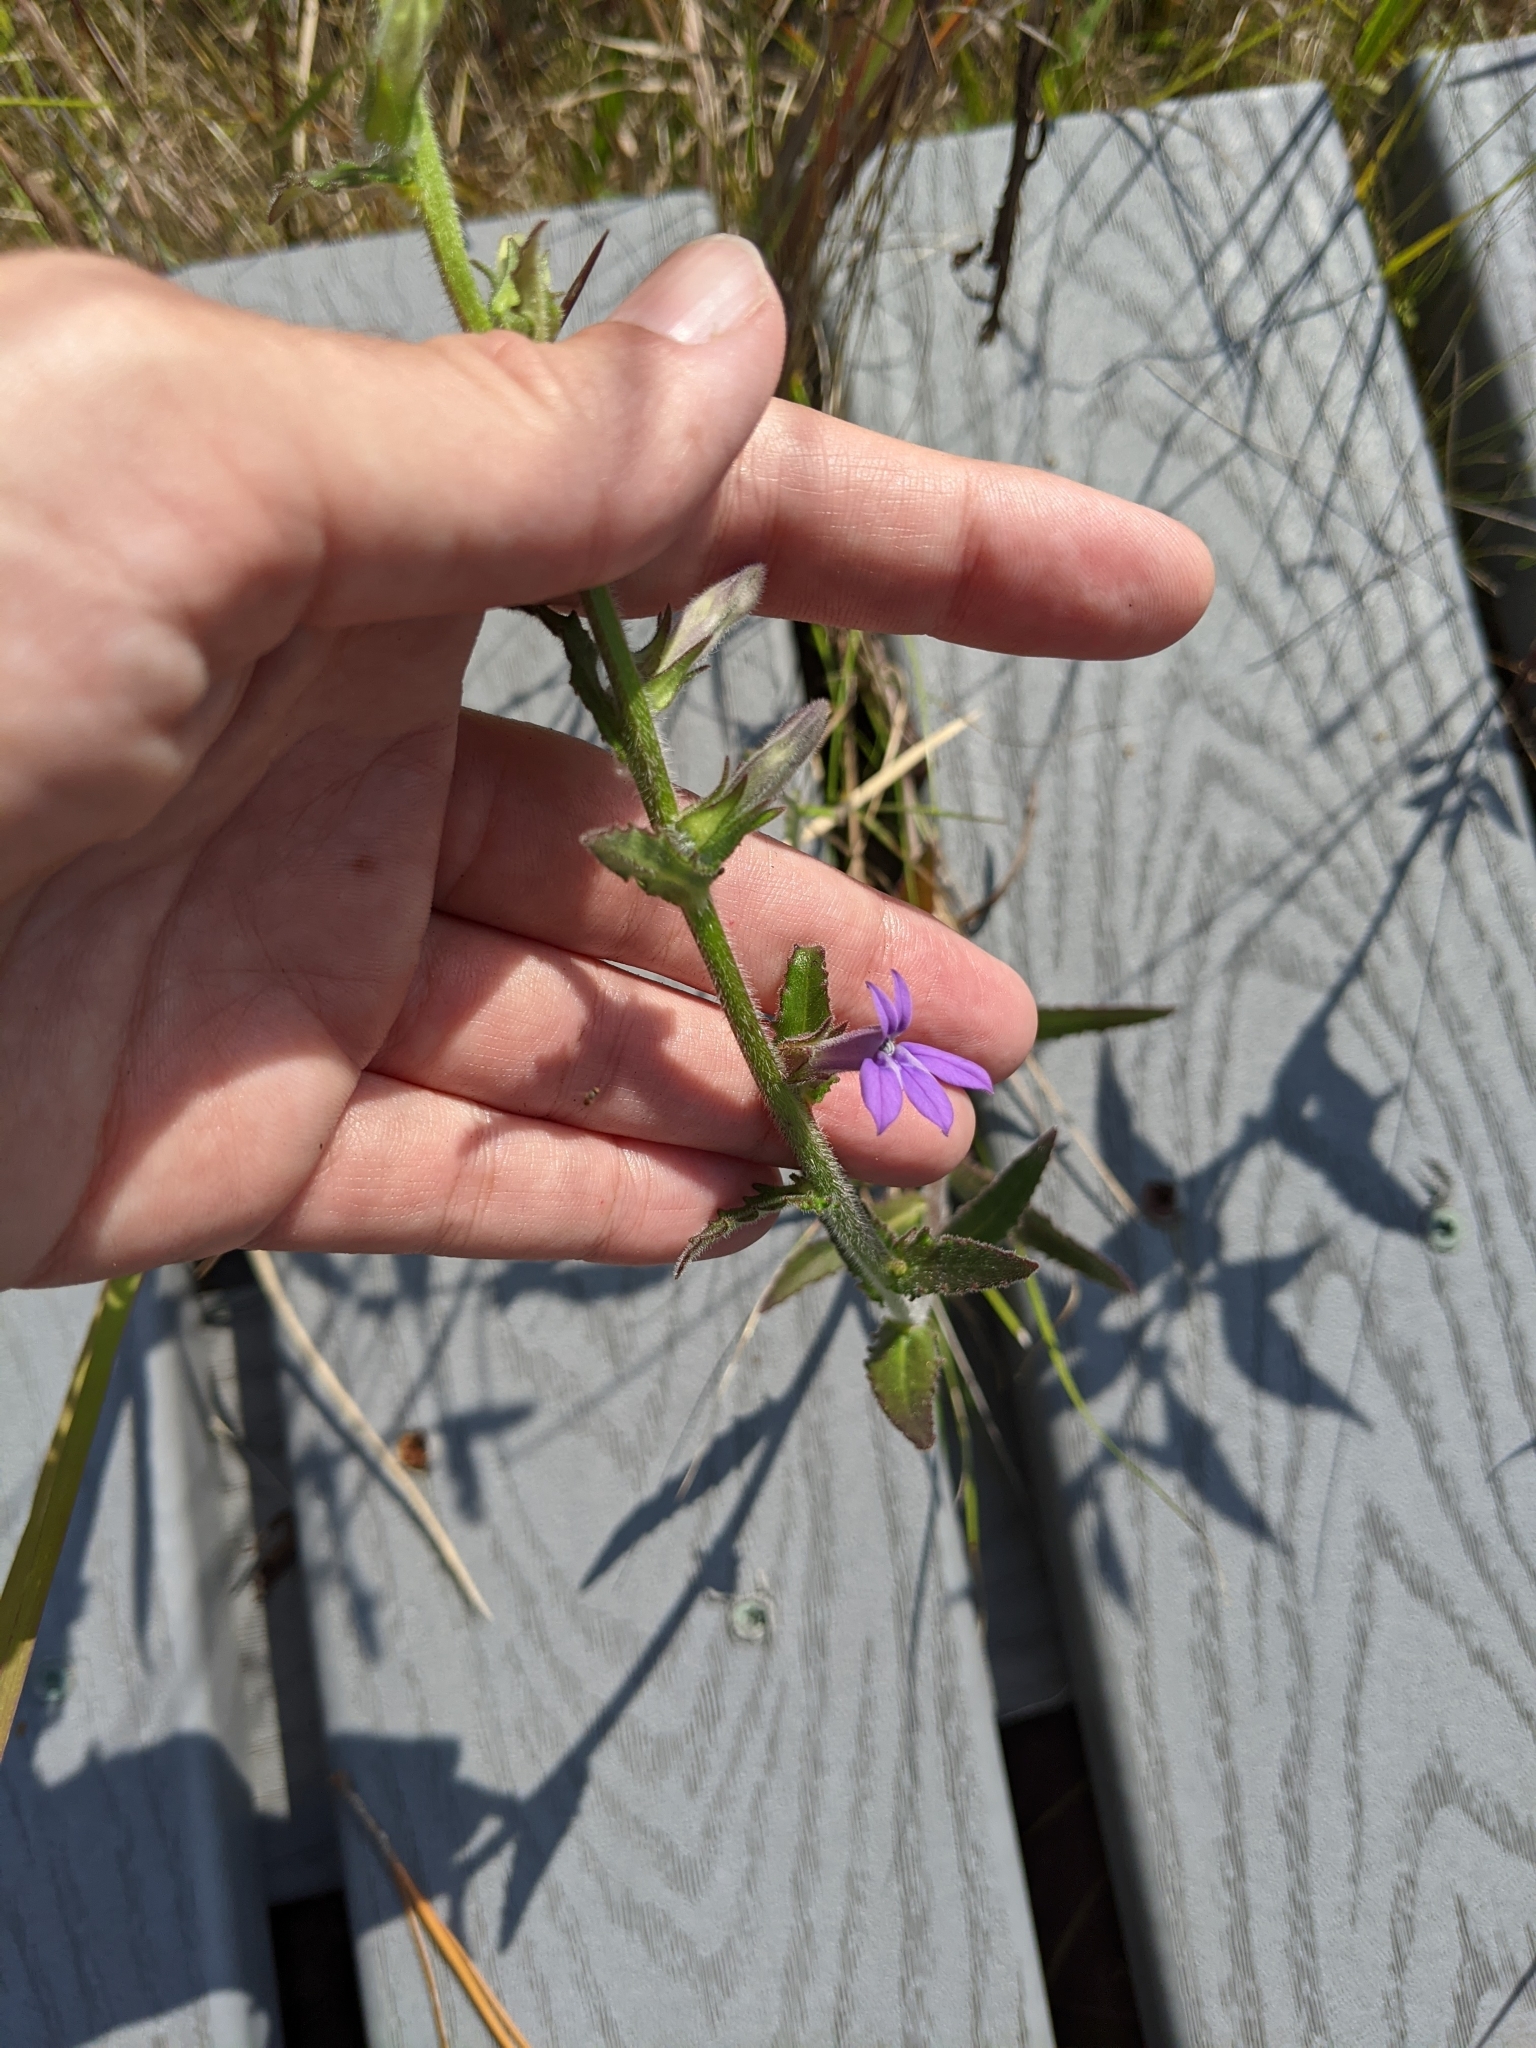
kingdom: Plantae
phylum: Tracheophyta
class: Magnoliopsida
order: Asterales
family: Campanulaceae
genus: Lobelia
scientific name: Lobelia reverchonii
